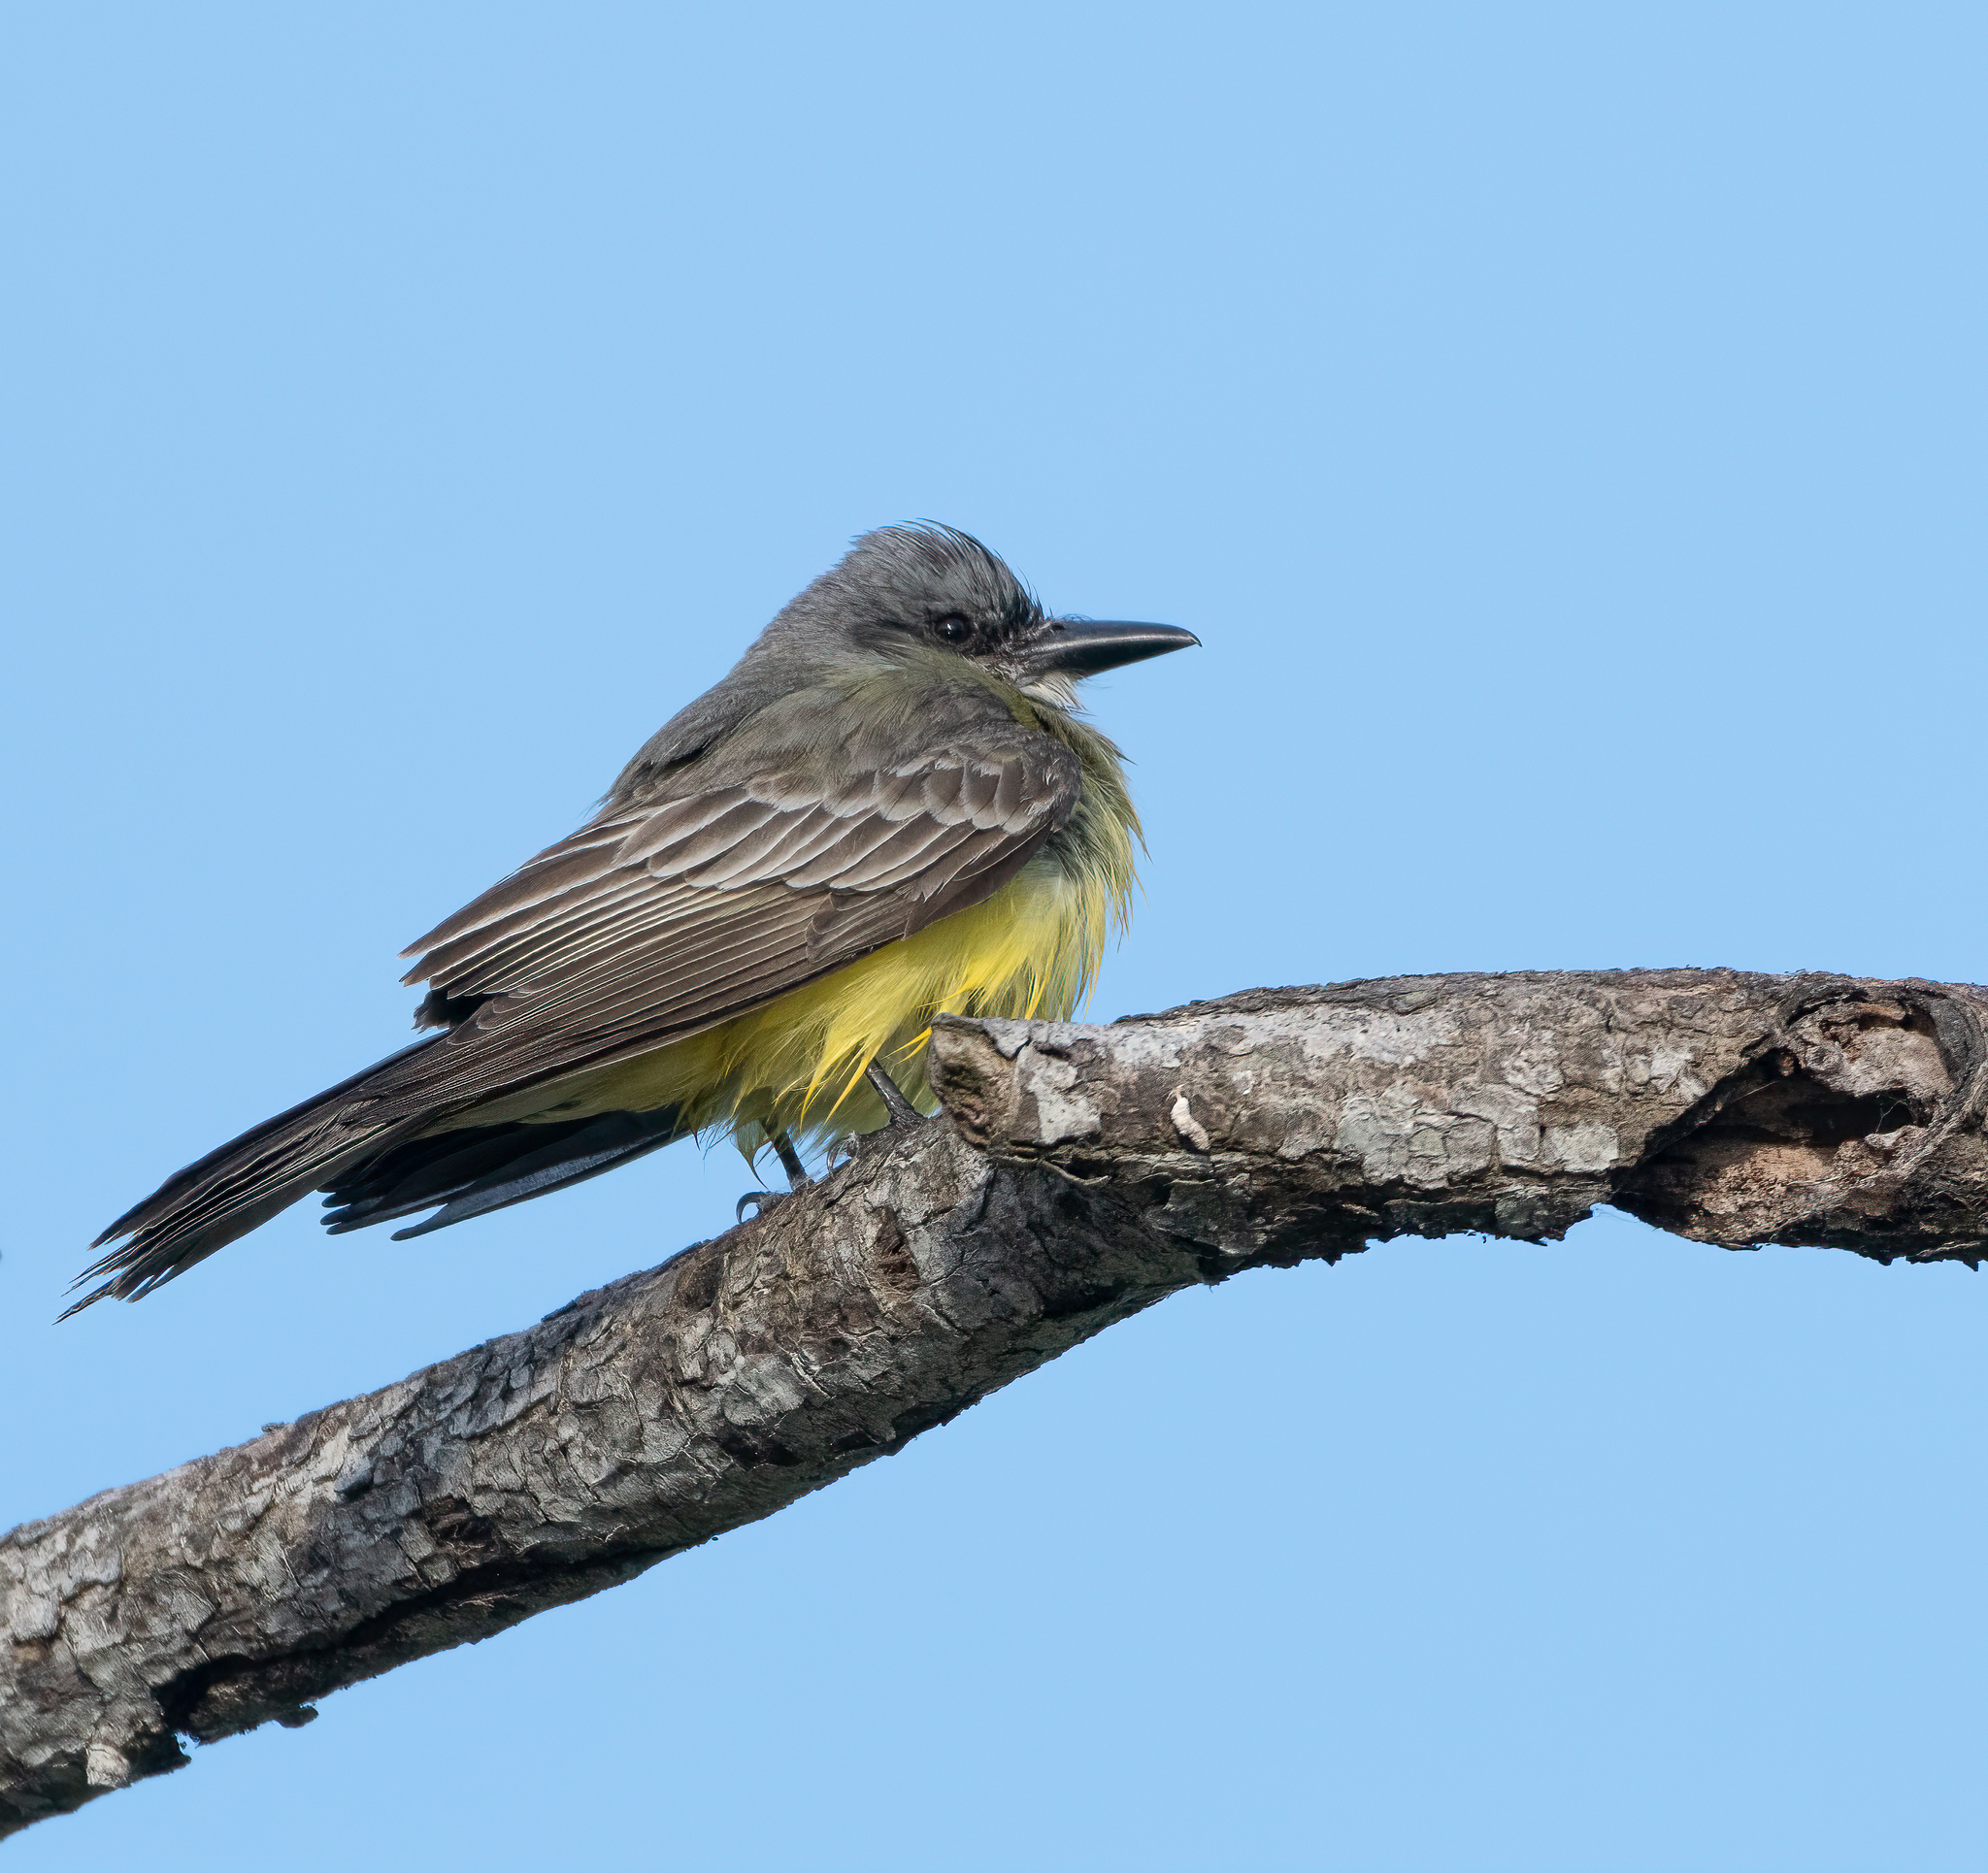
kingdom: Animalia
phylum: Chordata
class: Aves
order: Passeriformes
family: Tyrannidae
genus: Tyrannus
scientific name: Tyrannus melancholicus
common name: Tropical kingbird
